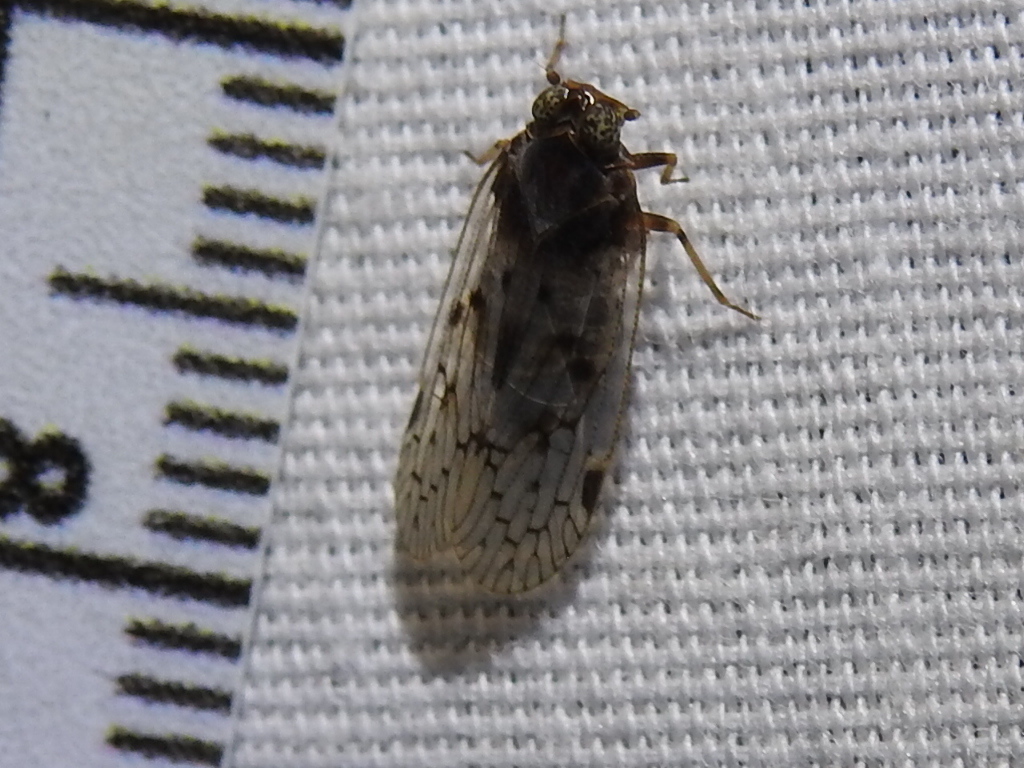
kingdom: Animalia
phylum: Arthropoda
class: Insecta
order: Hemiptera
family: Cixiidae
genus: Melanoliarus
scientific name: Melanoliarus aridus
